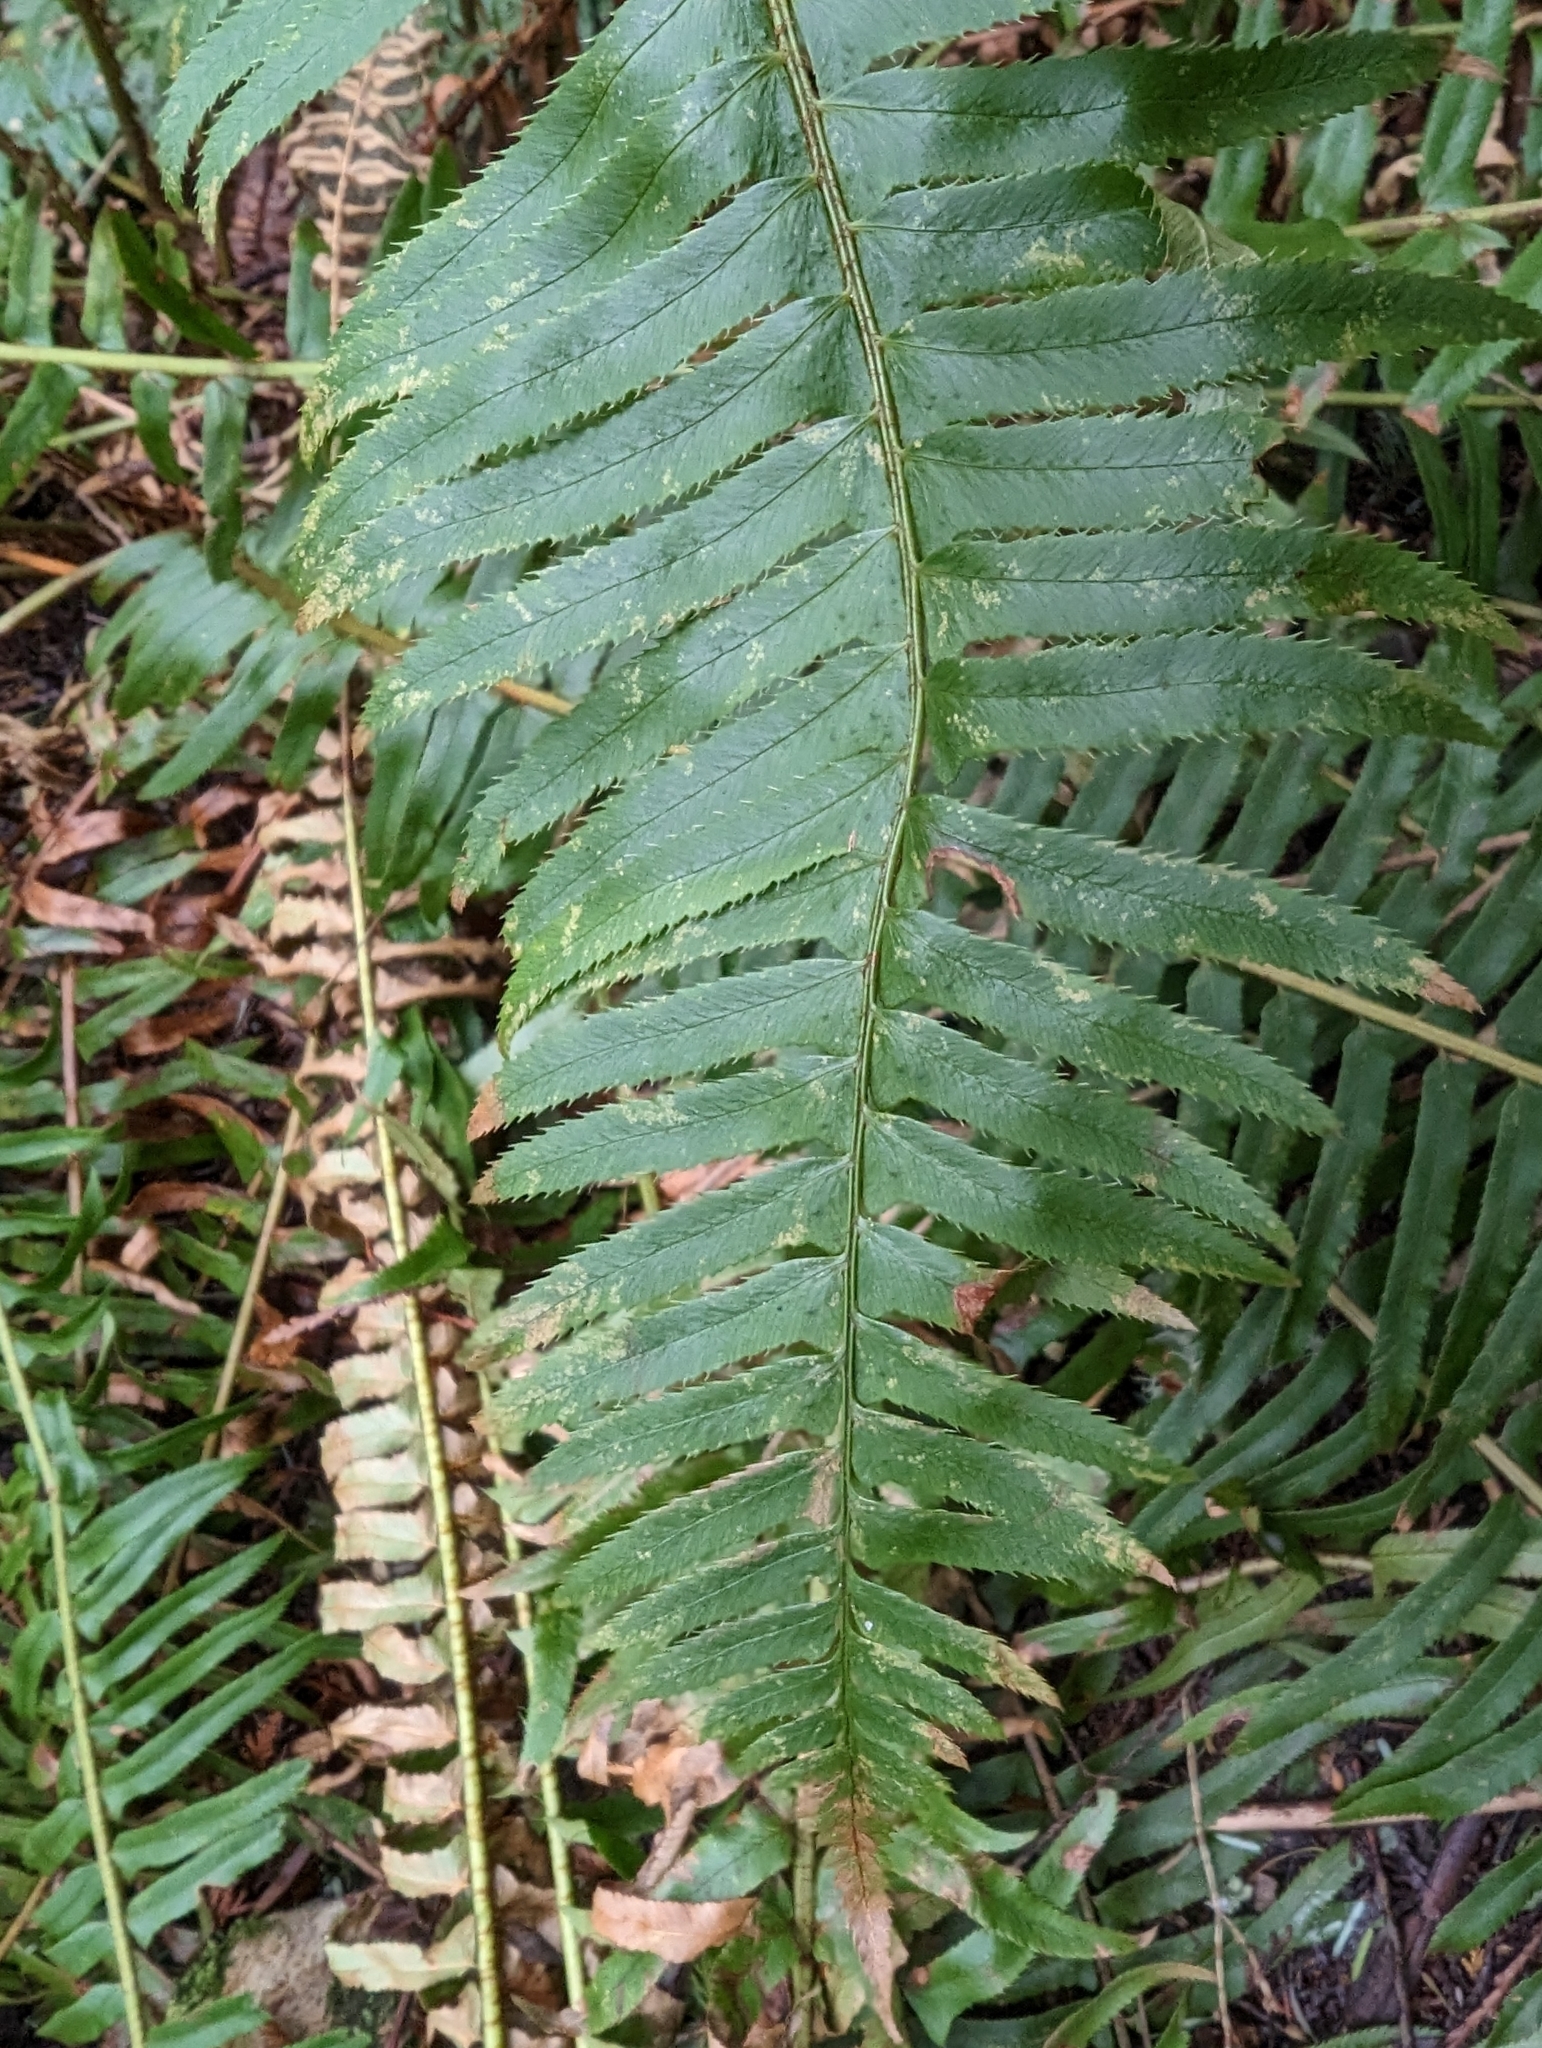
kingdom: Plantae
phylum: Tracheophyta
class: Polypodiopsida
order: Polypodiales
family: Dryopteridaceae
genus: Polystichum
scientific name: Polystichum munitum
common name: Western sword-fern
